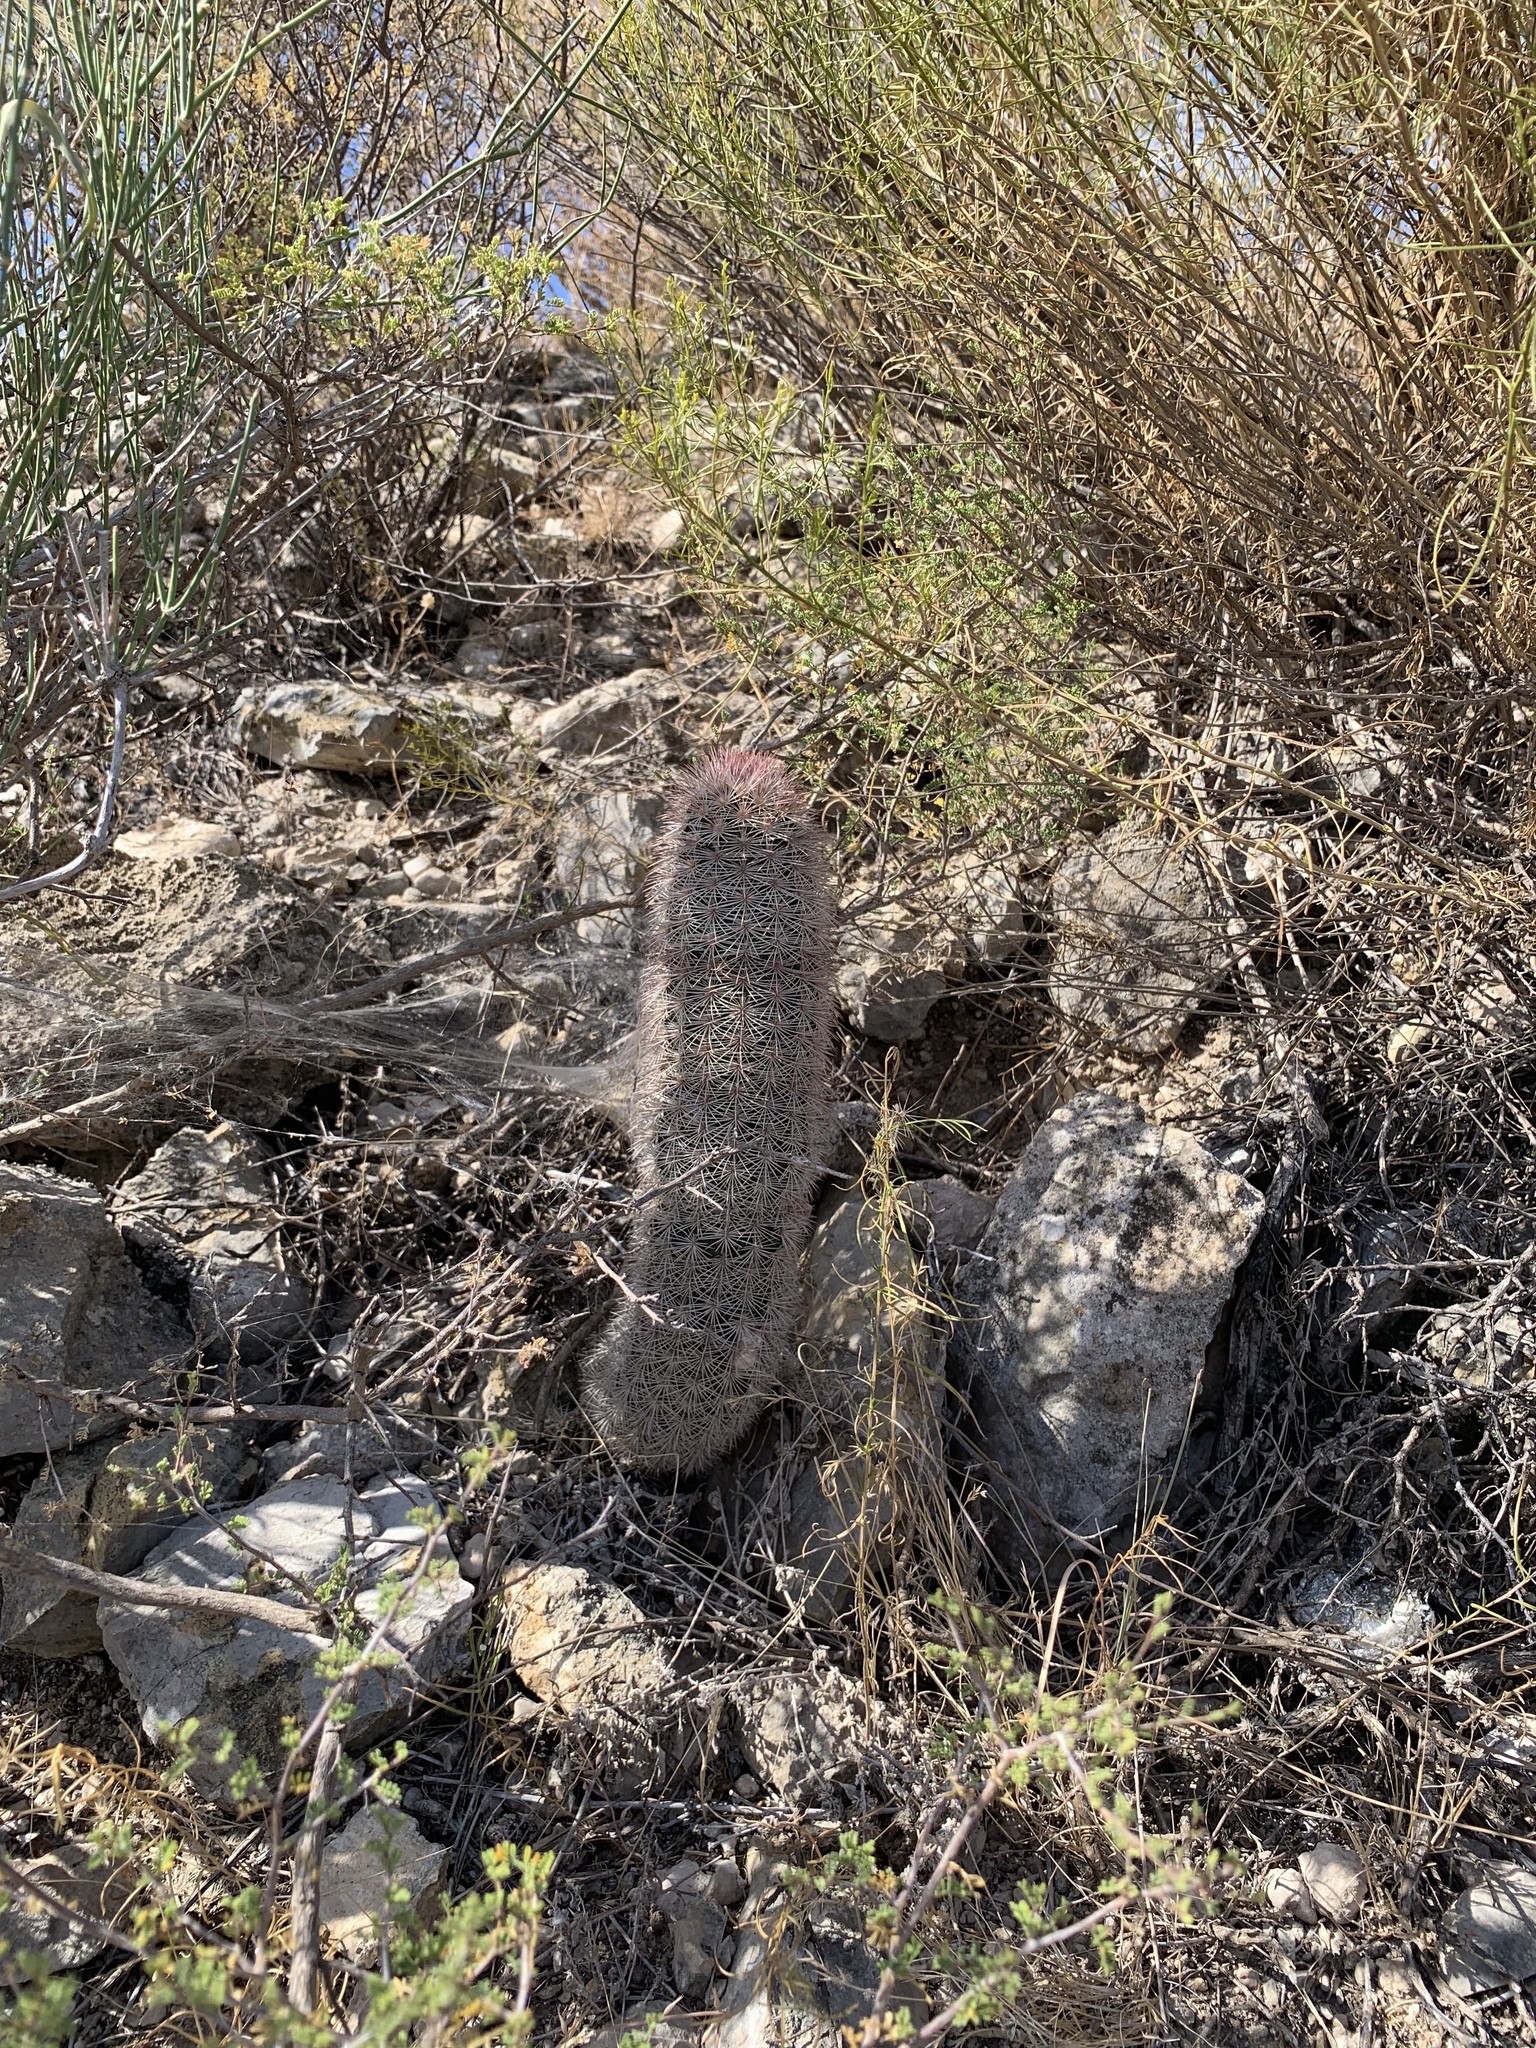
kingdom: Plantae
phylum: Tracheophyta
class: Magnoliopsida
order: Caryophyllales
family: Cactaceae
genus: Echinocereus
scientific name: Echinocereus dasyacanthus
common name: Spiny hedgehog cactus
